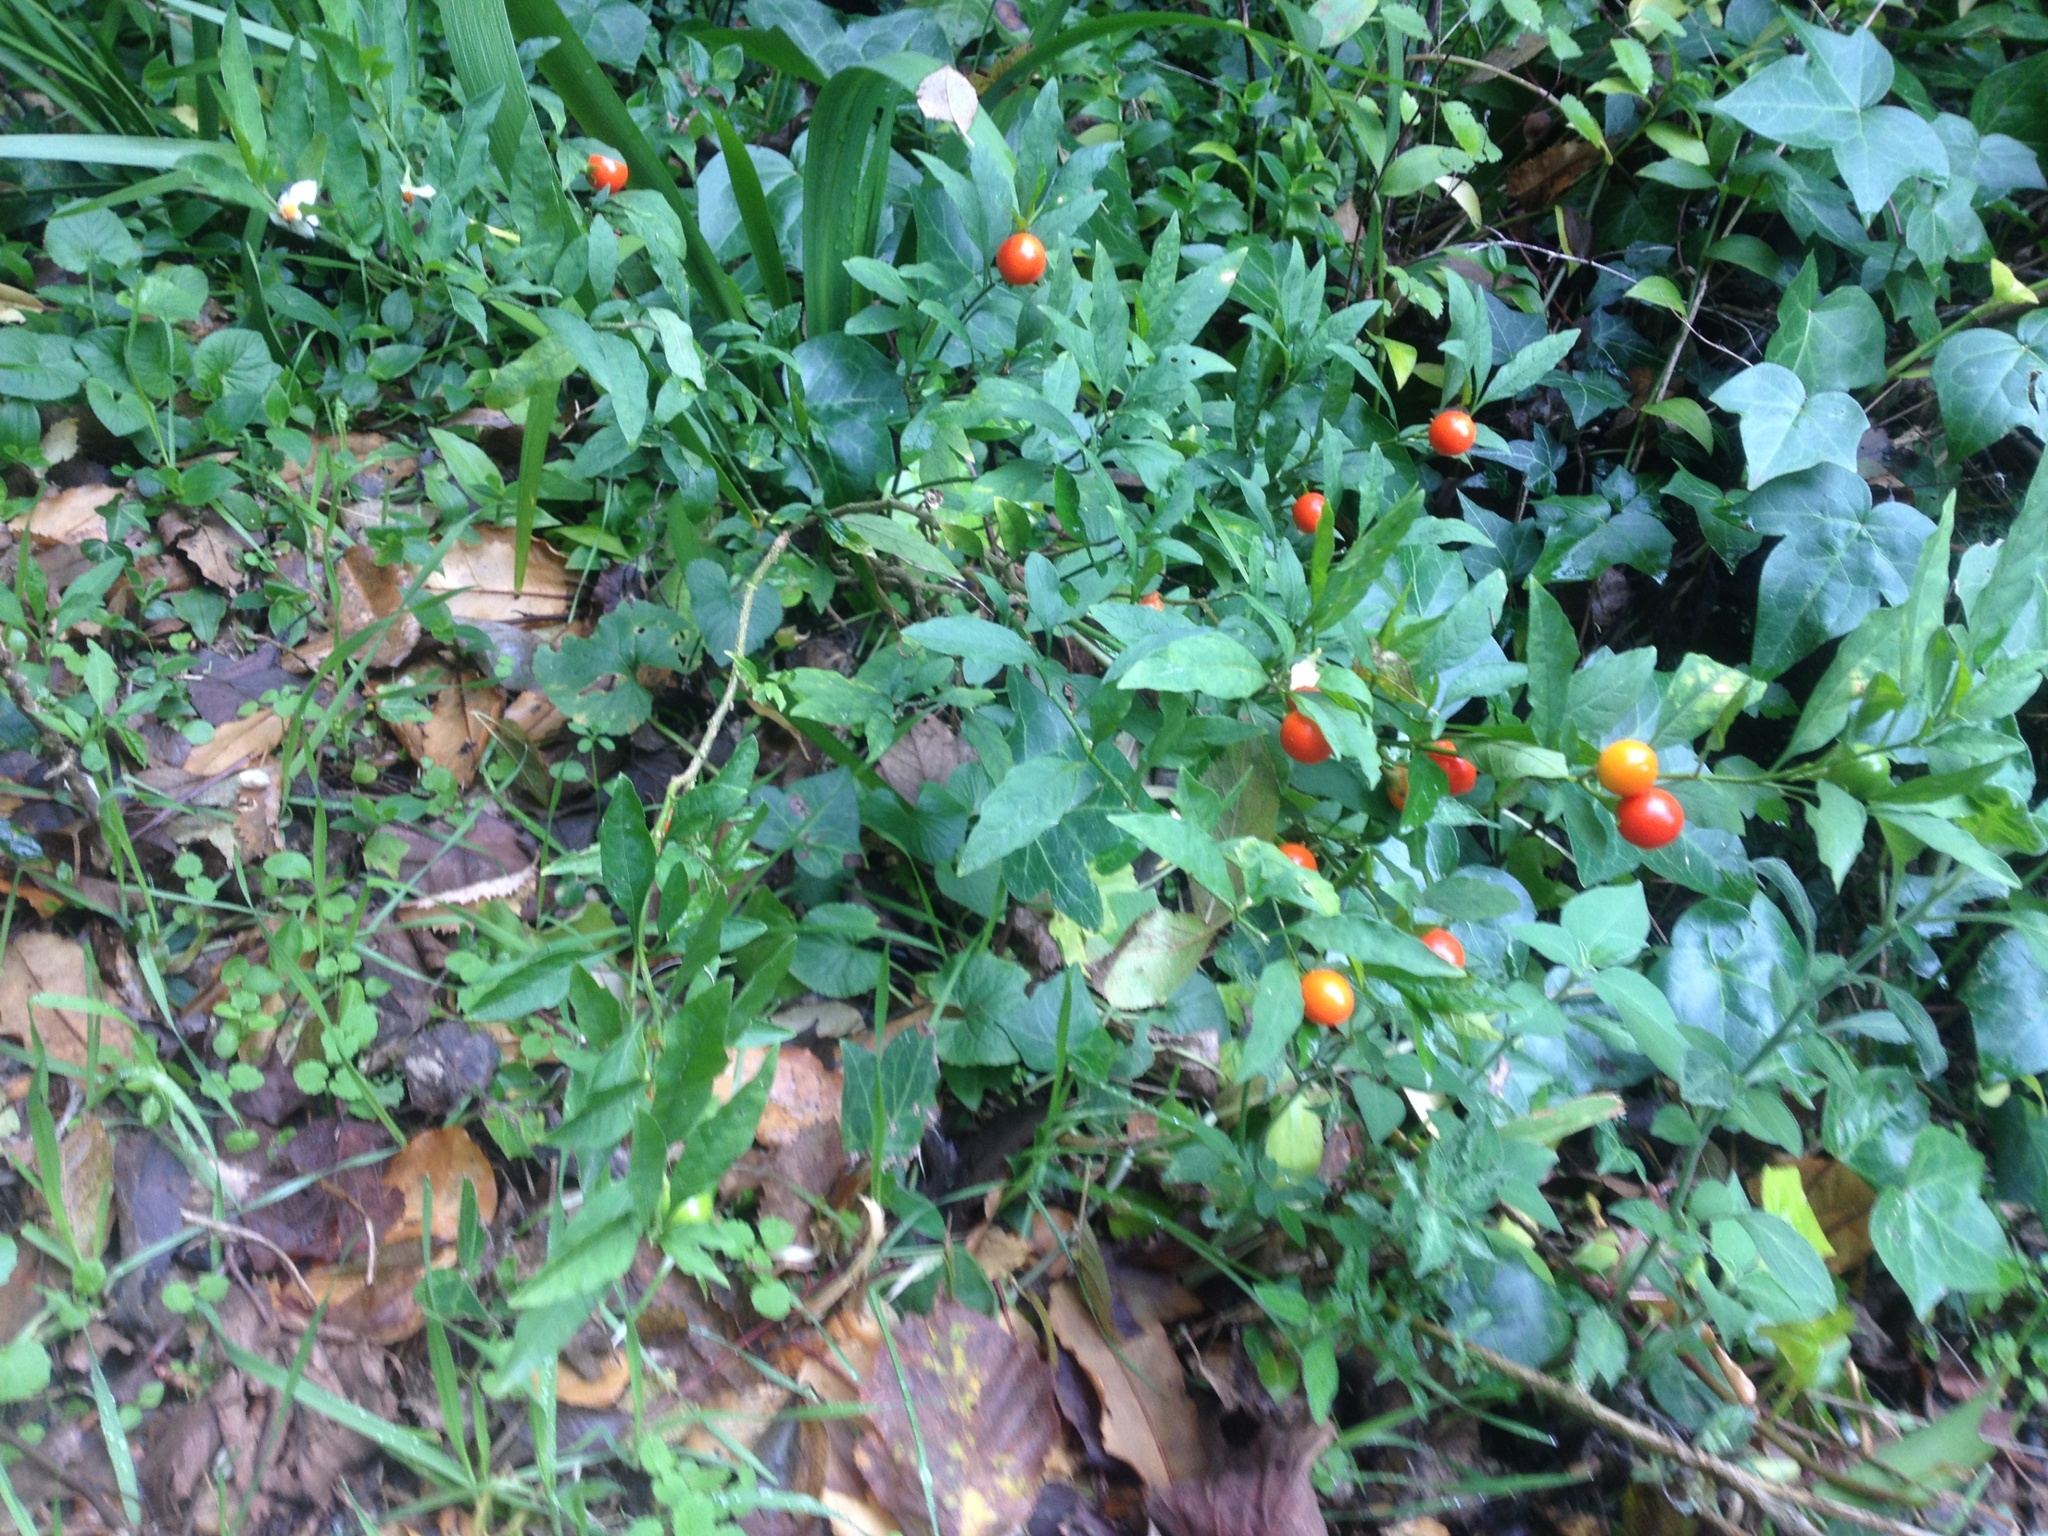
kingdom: Plantae
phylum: Tracheophyta
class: Magnoliopsida
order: Solanales
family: Solanaceae
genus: Solanum
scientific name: Solanum pseudocapsicum
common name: Jerusalem cherry
